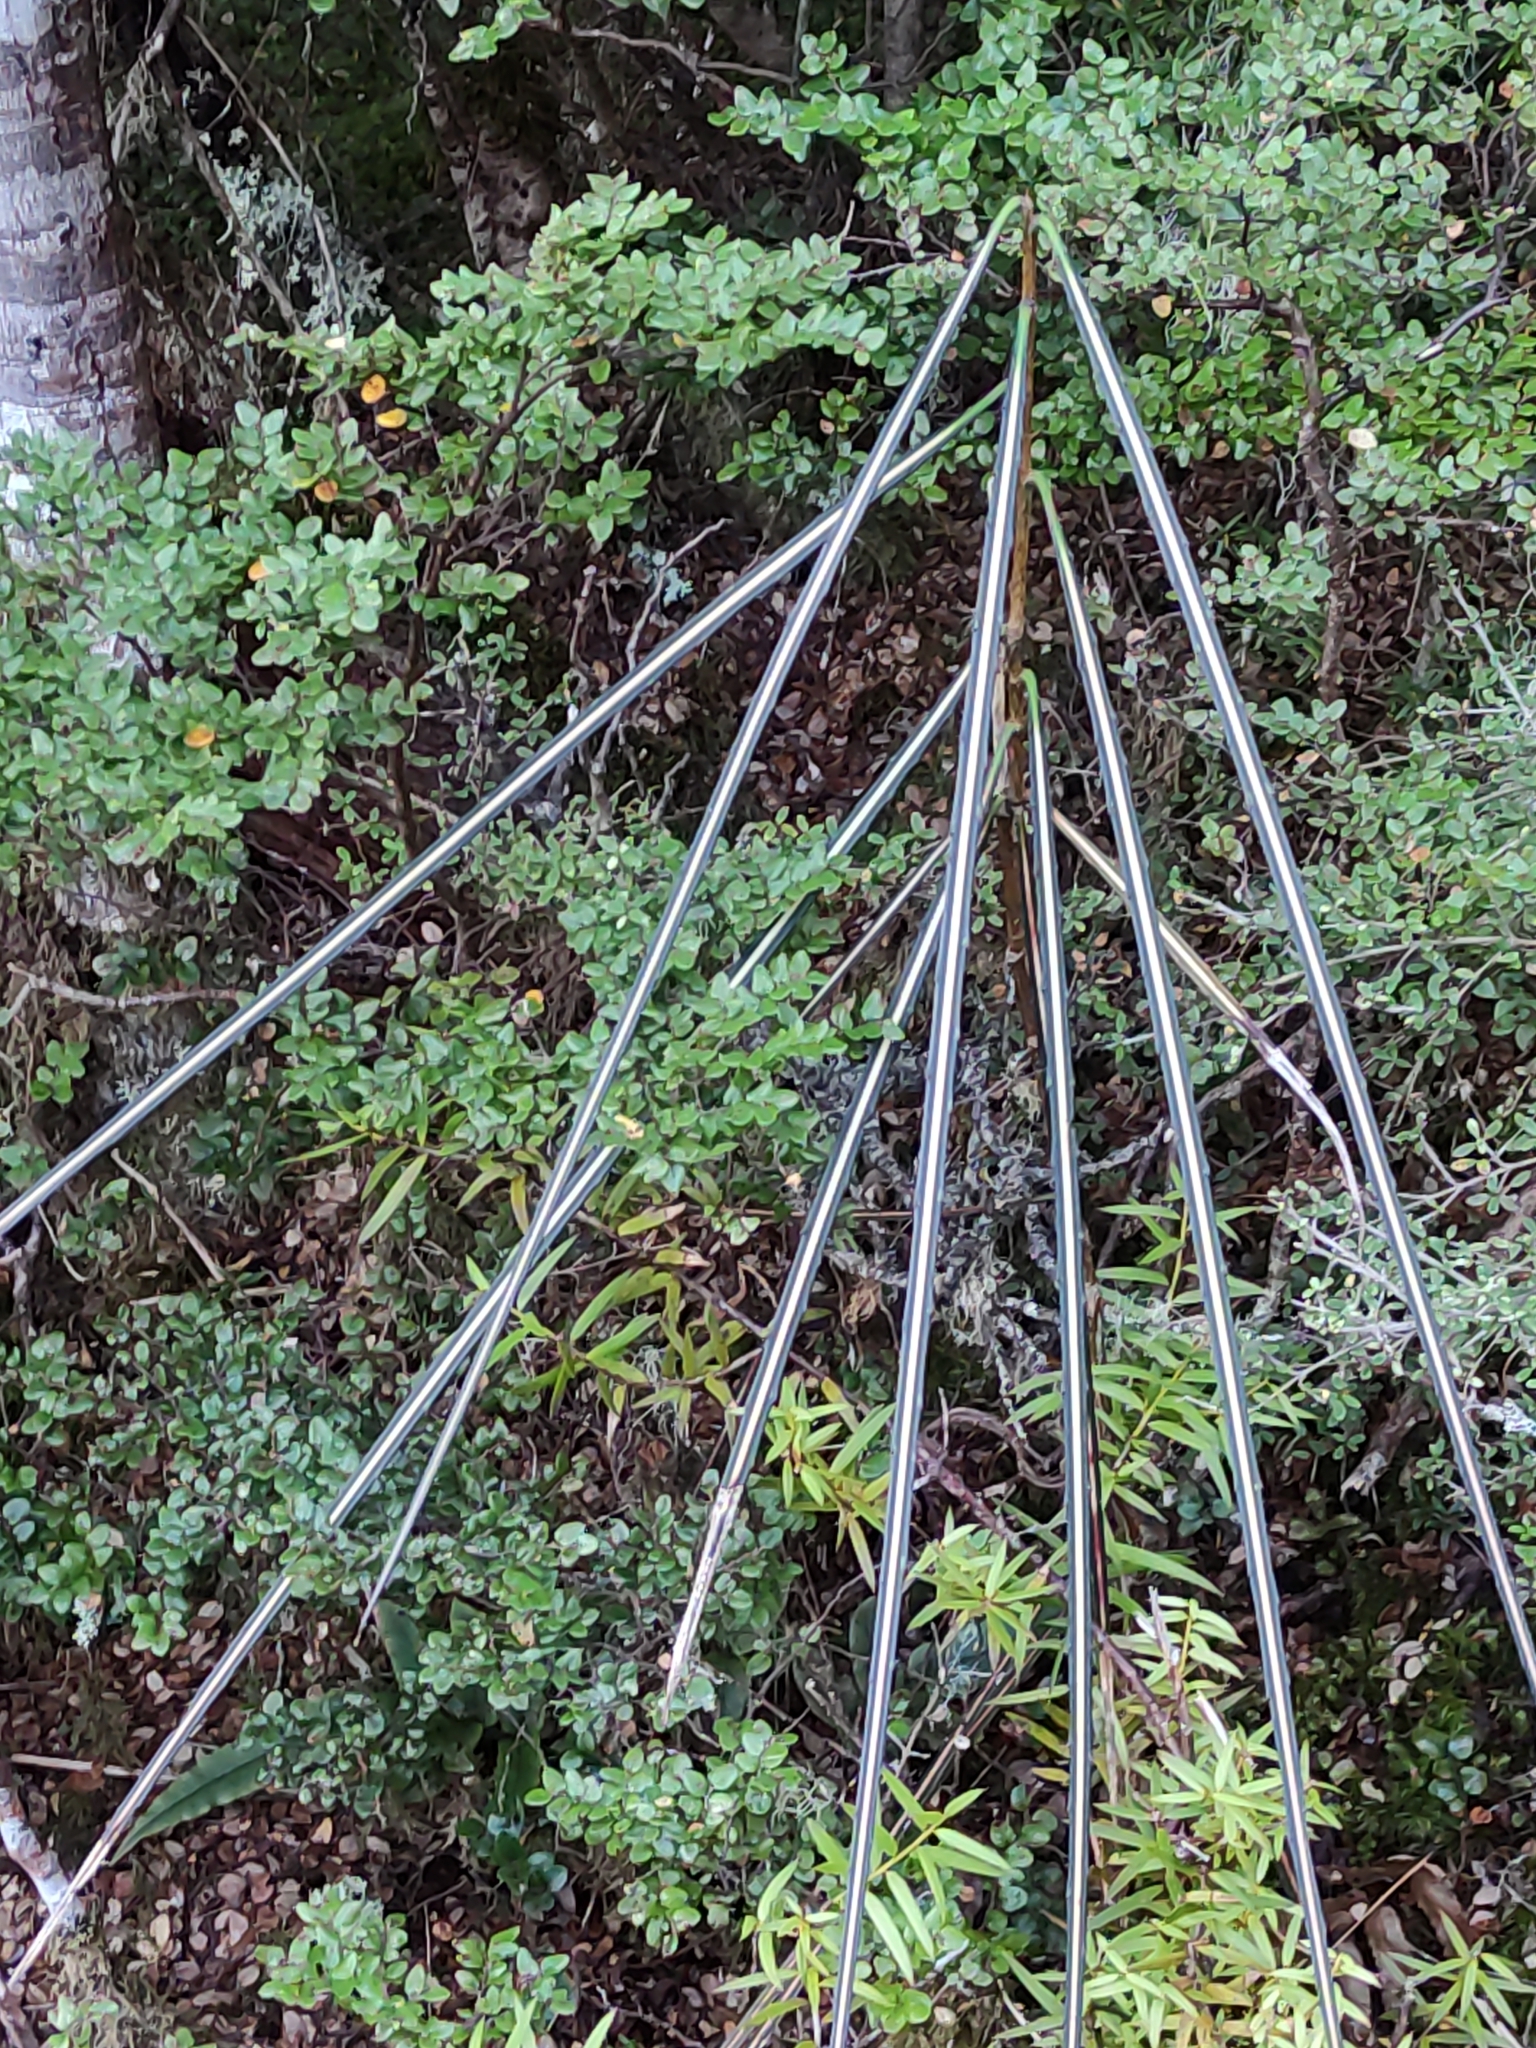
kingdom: Plantae
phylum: Tracheophyta
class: Magnoliopsida
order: Apiales
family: Araliaceae
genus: Pseudopanax
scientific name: Pseudopanax crassifolius
